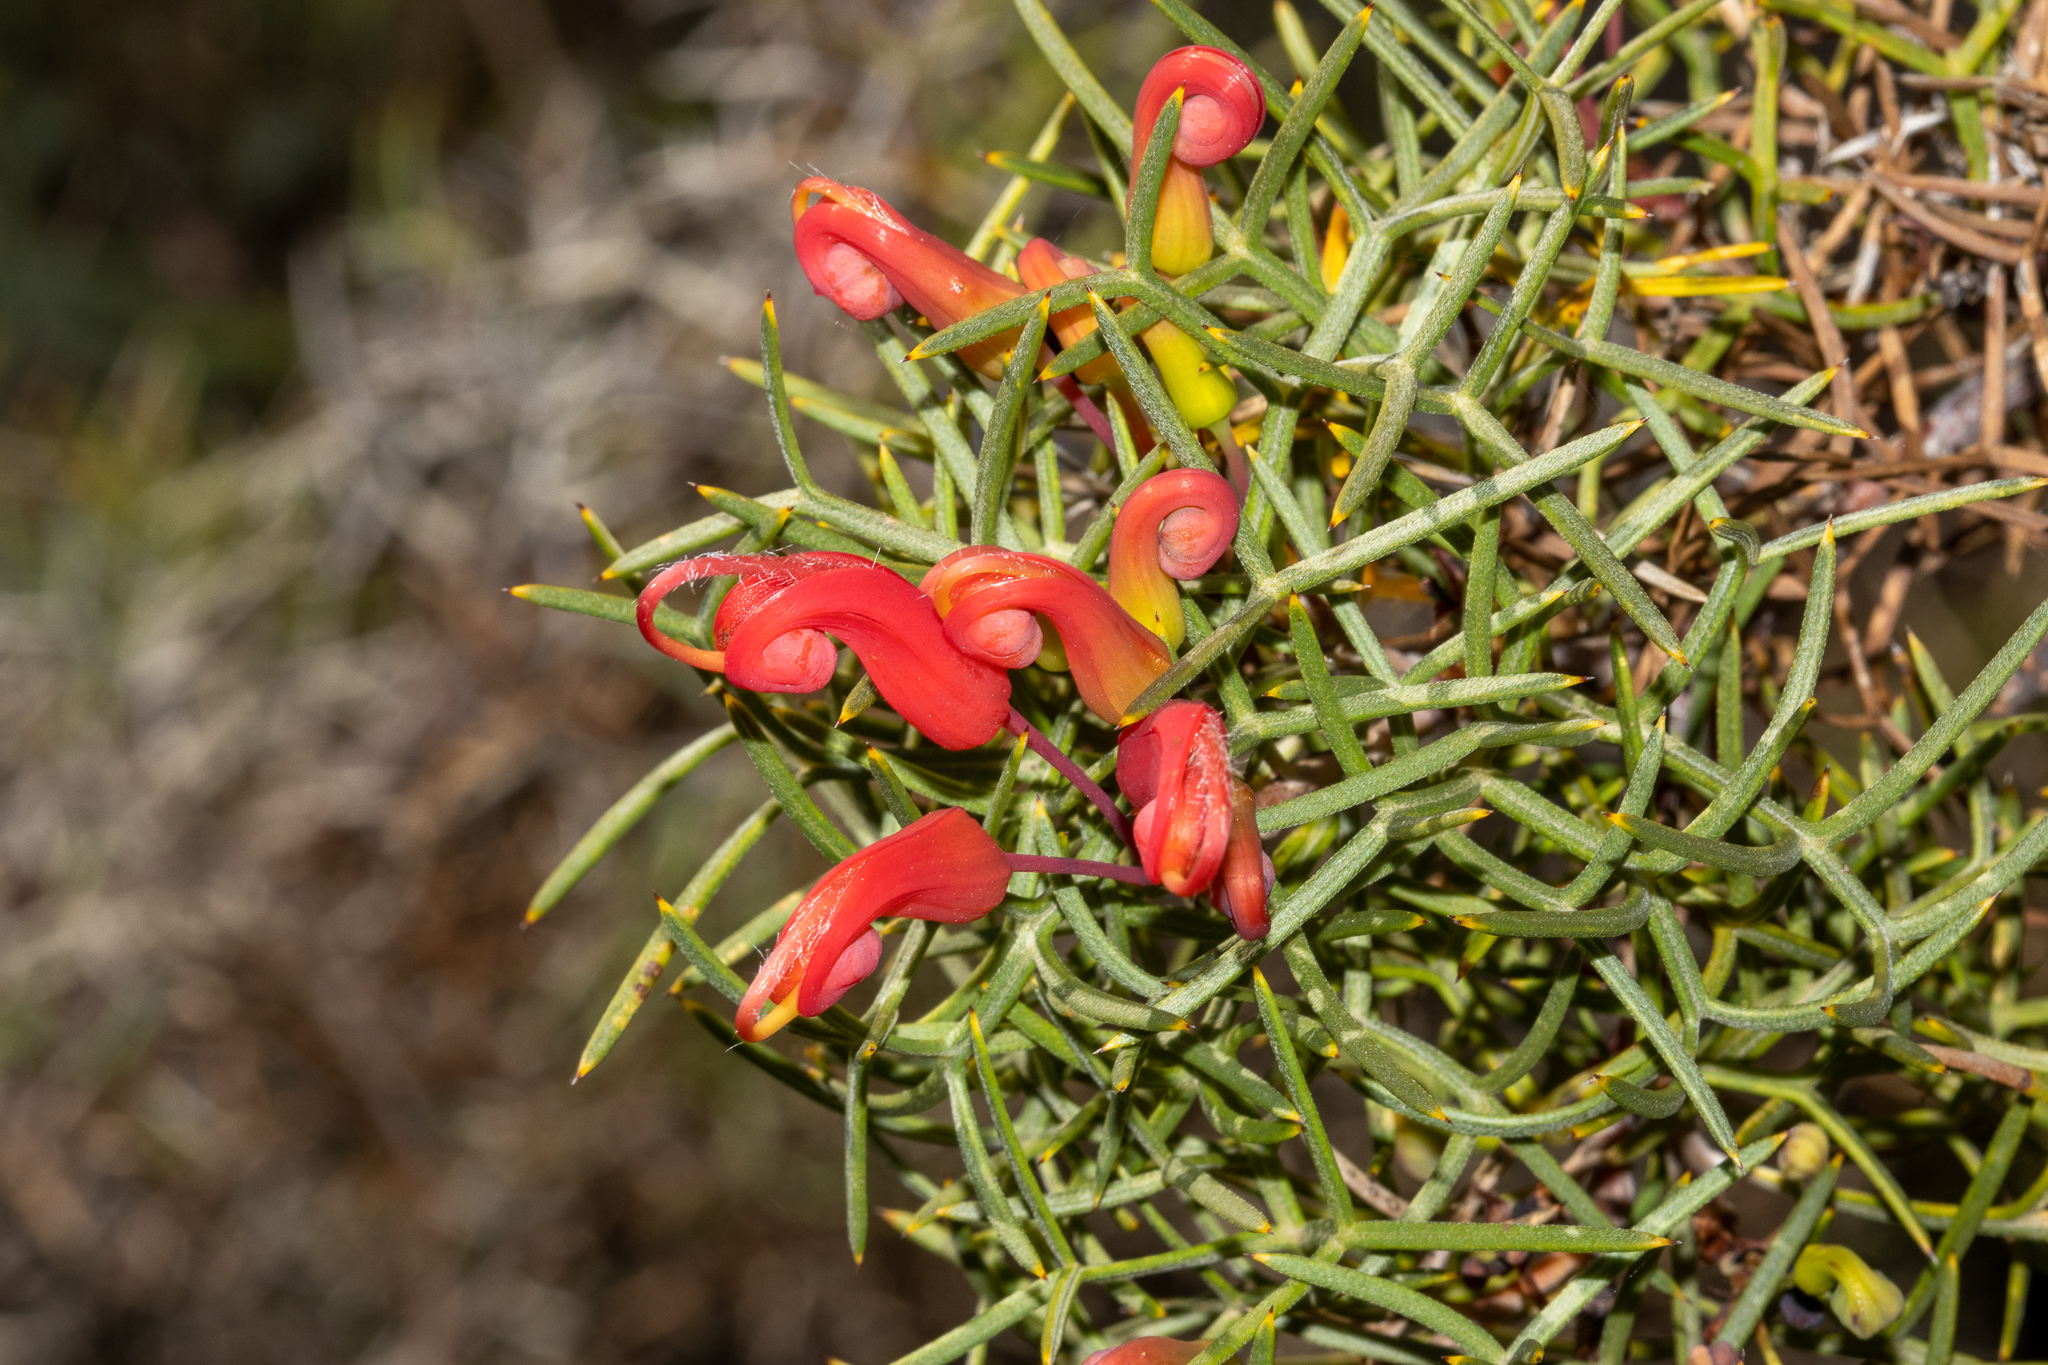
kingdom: Plantae
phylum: Tracheophyta
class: Magnoliopsida
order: Proteales
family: Proteaceae
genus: Grevillea
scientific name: Grevillea wilsonii
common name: Fire-wheel
